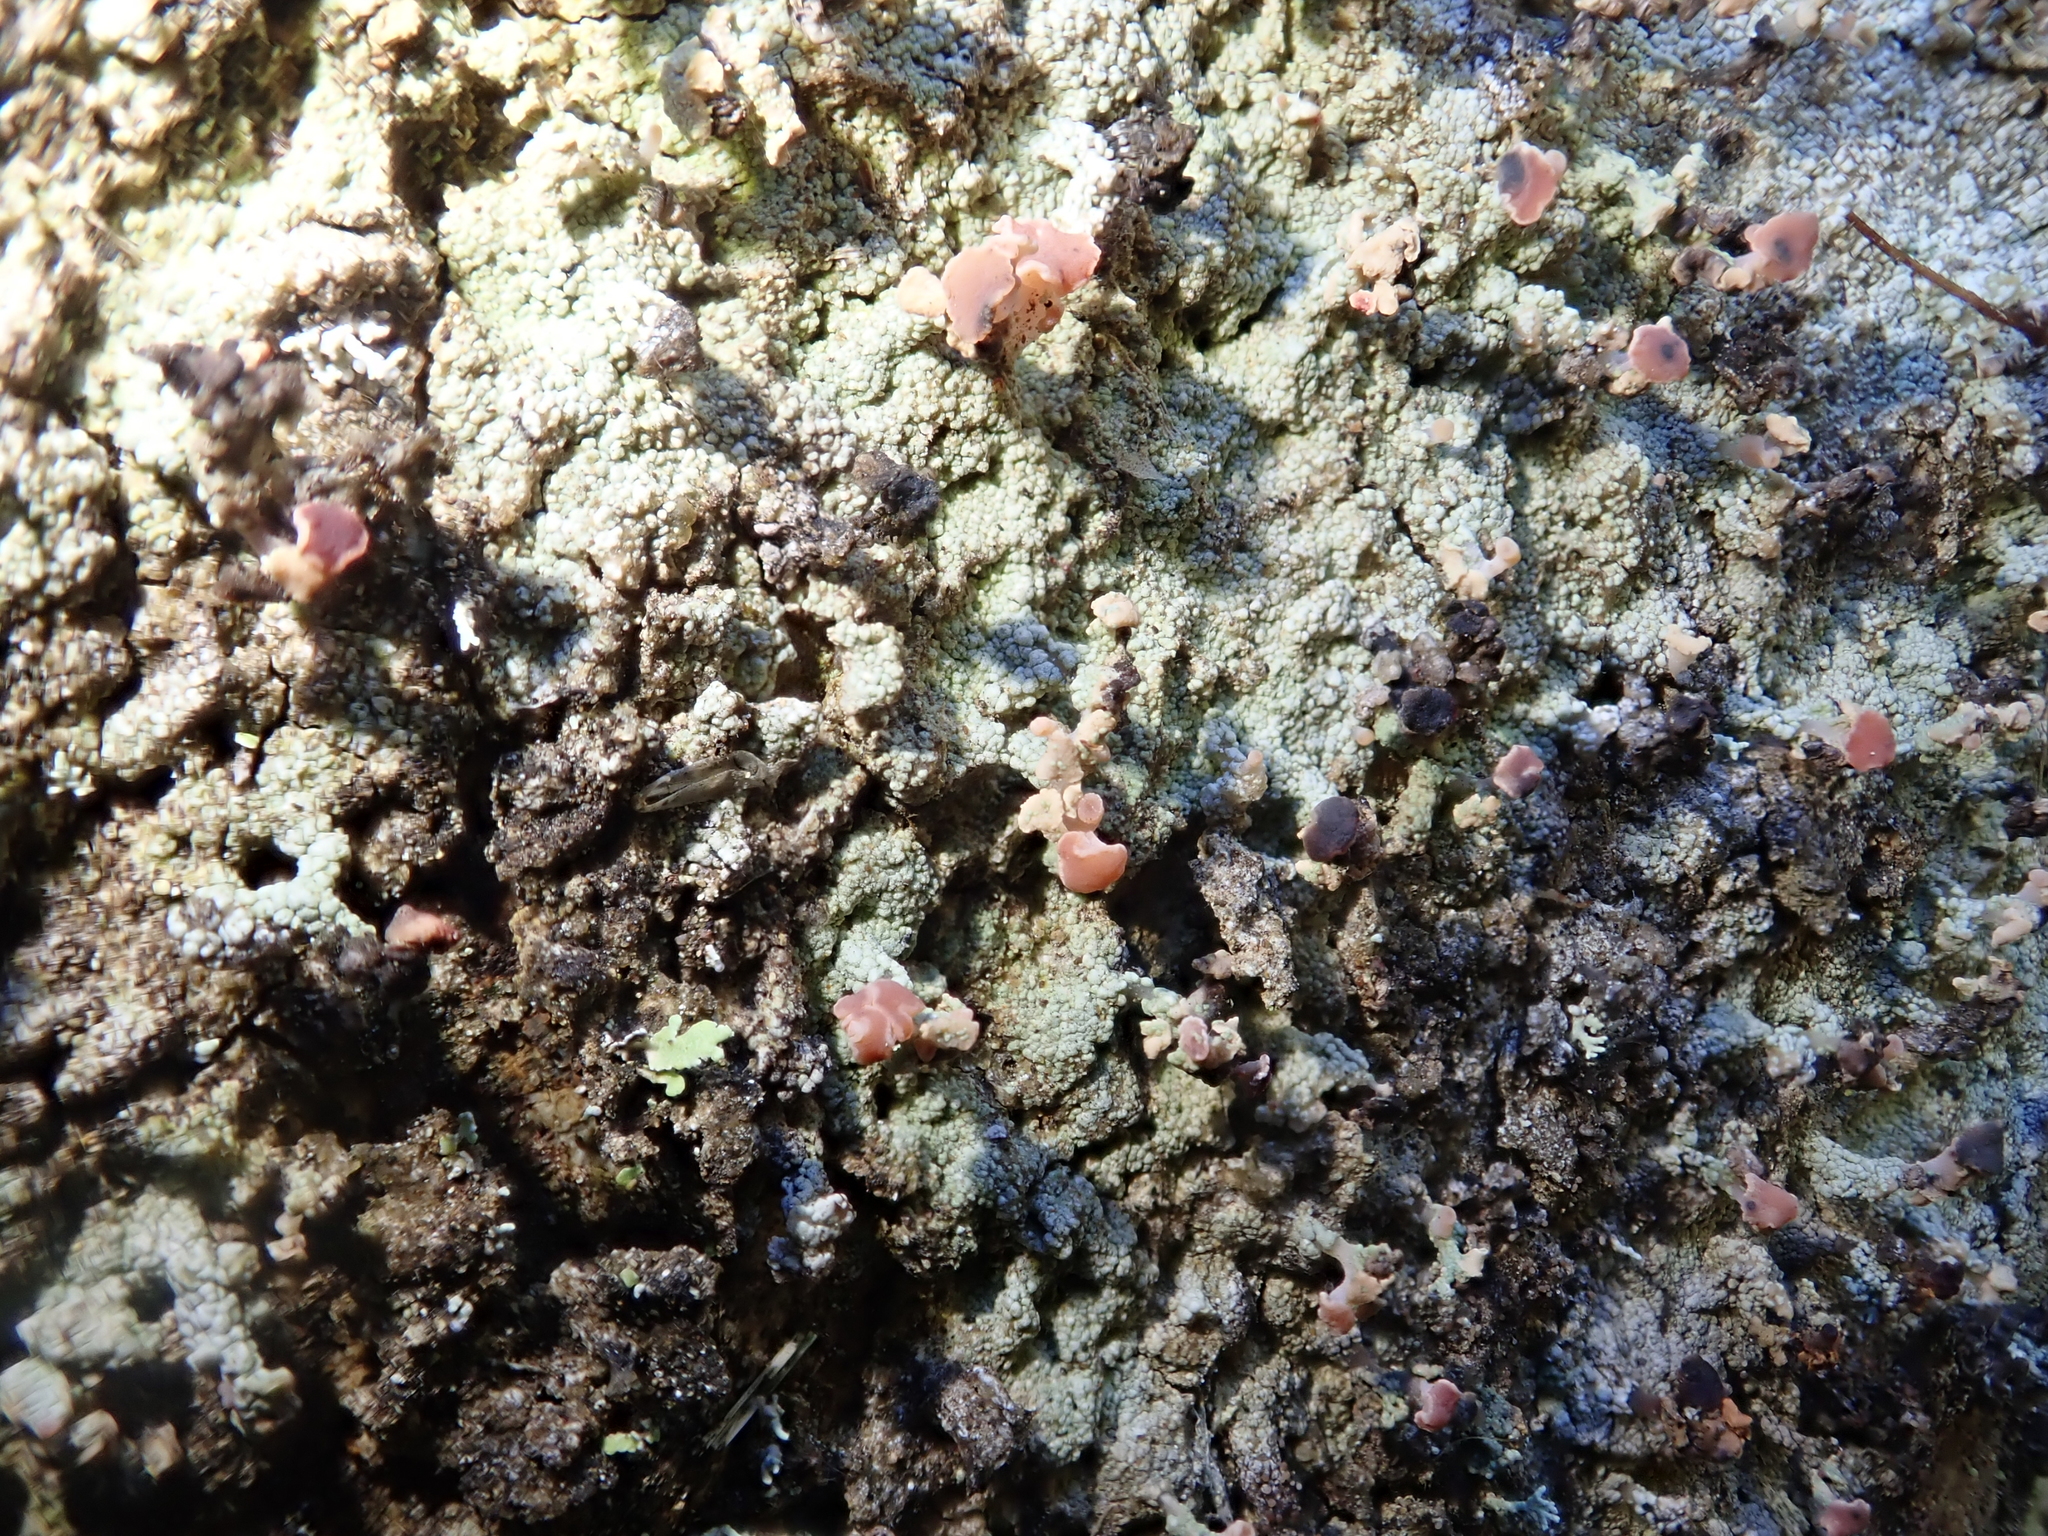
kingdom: Fungi
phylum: Ascomycota
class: Lecanoromycetes
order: Baeomycetales
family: Baeomycetaceae
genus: Baeomyces
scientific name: Baeomyces heteromorphus
